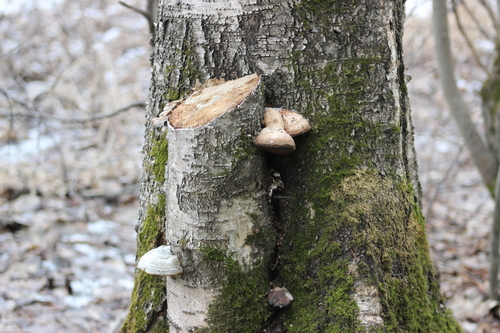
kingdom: Fungi
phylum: Basidiomycota
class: Agaricomycetes
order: Polyporales
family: Fomitopsidaceae
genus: Fomitopsis
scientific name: Fomitopsis betulina
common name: Birch polypore
